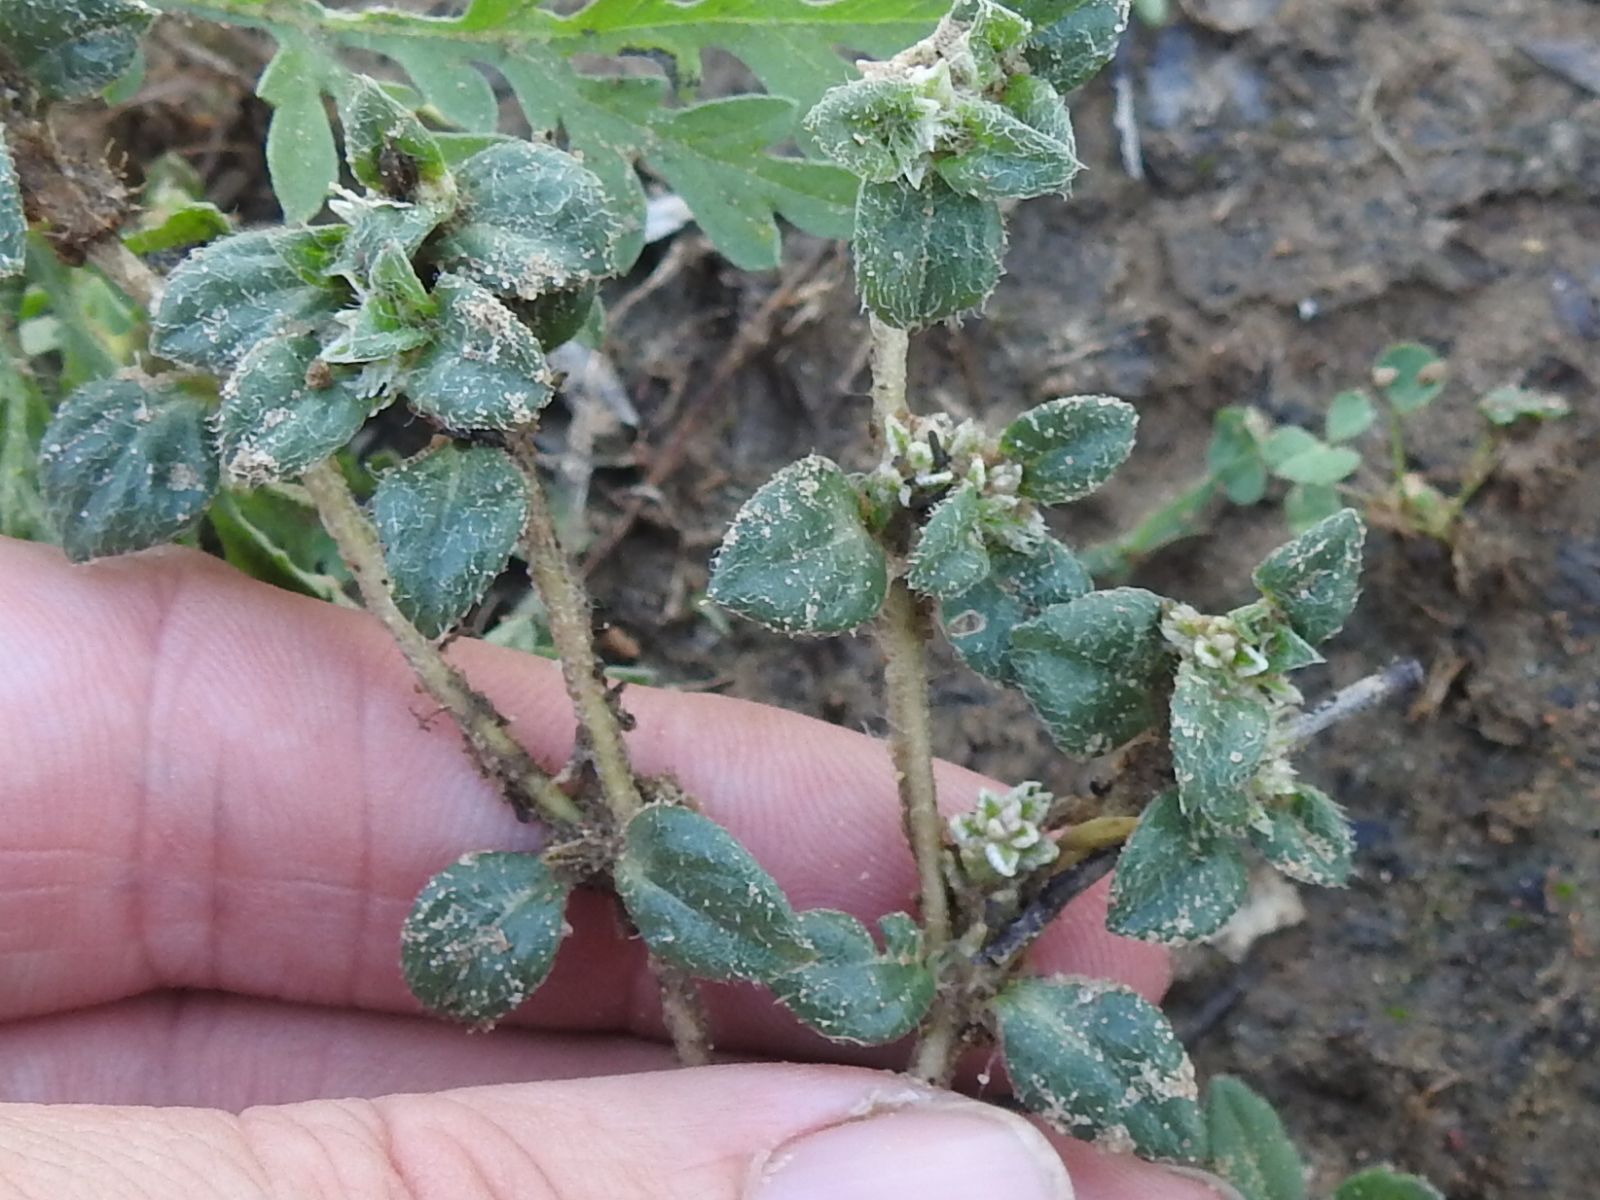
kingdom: Plantae
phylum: Tracheophyta
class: Magnoliopsida
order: Caryophyllales
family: Amaranthaceae
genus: Gomphrena
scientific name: Gomphrena lanuparonychioides
